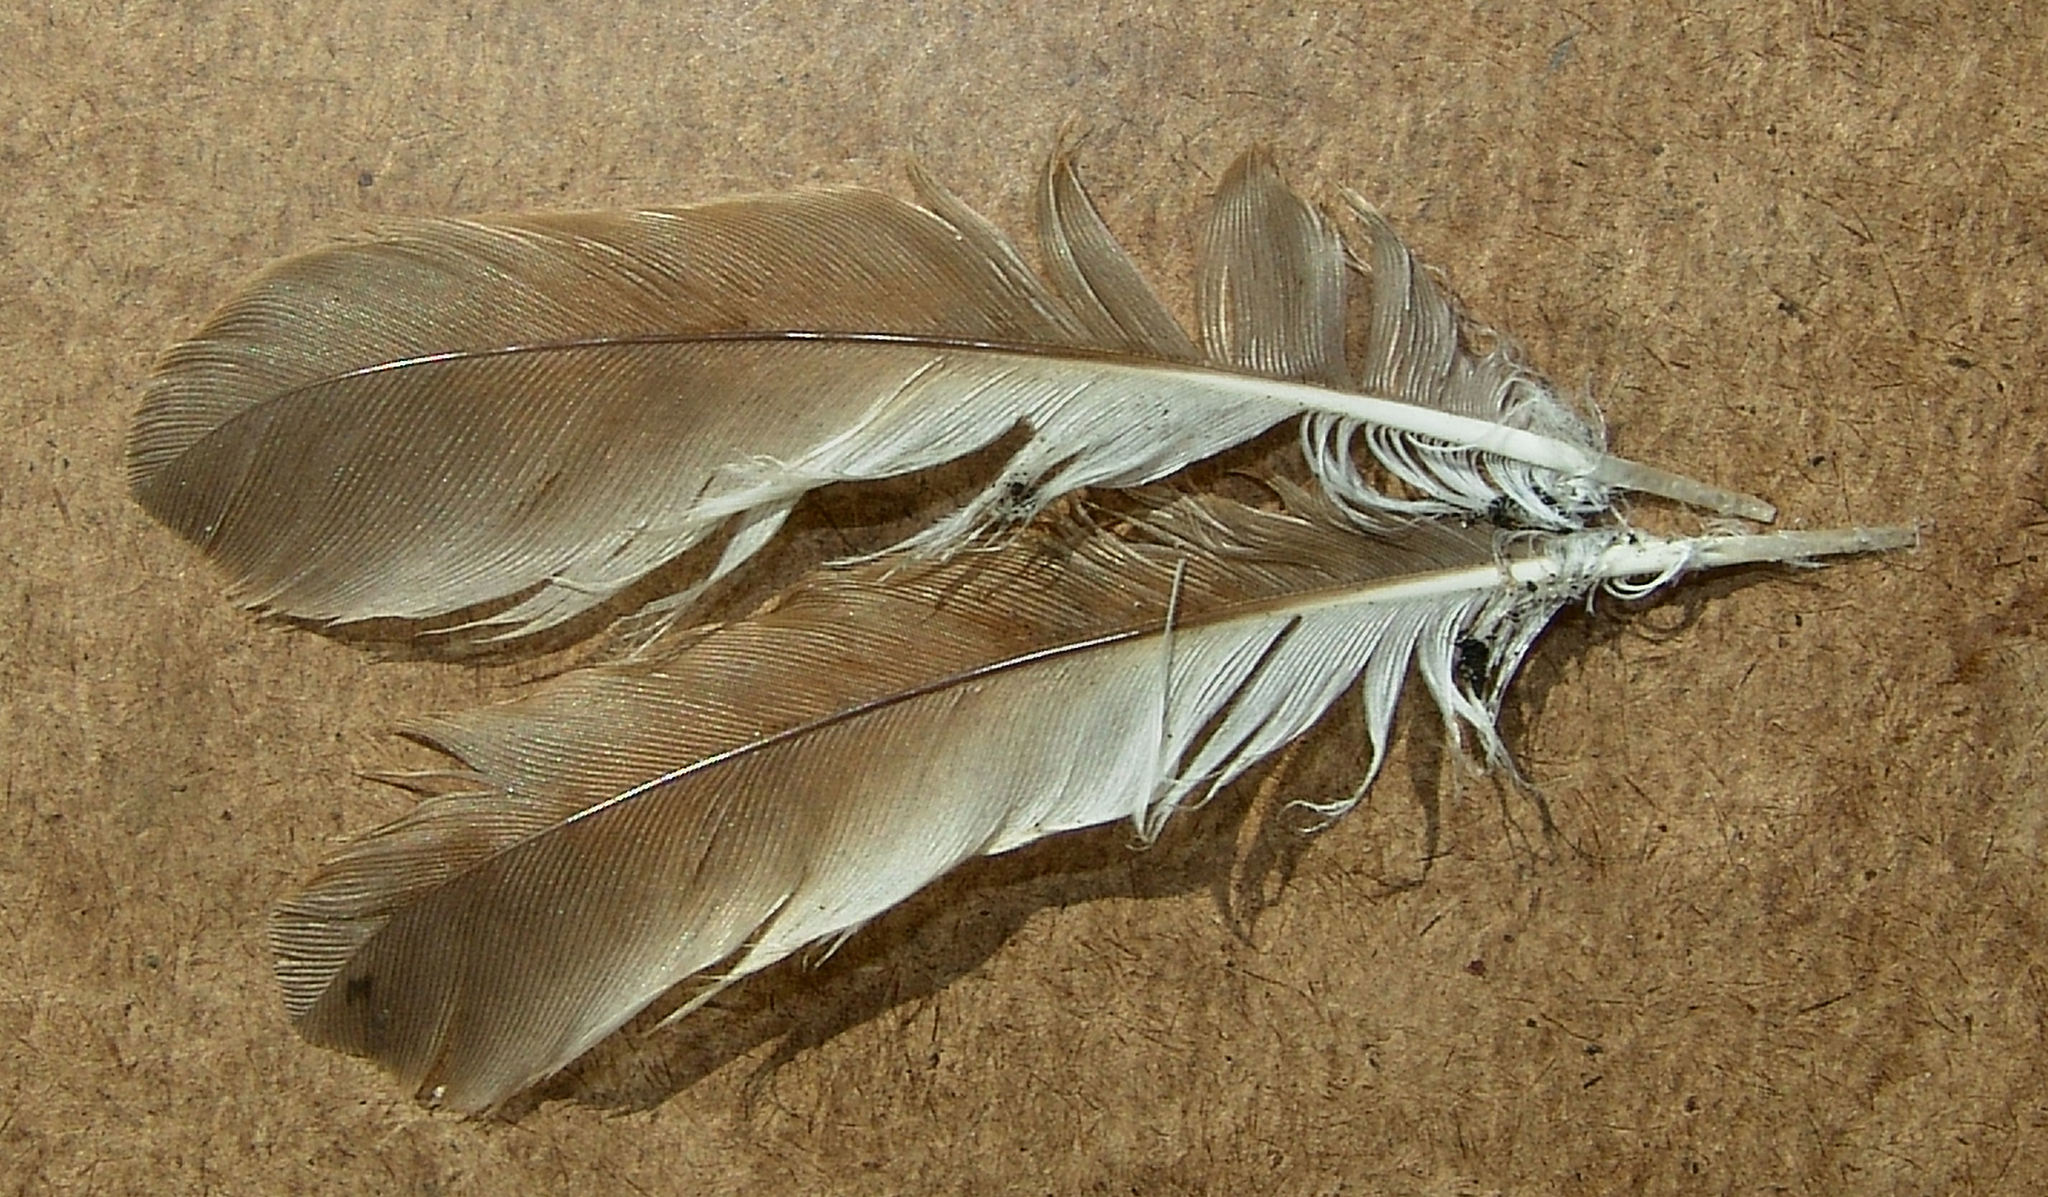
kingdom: Animalia
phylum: Chordata
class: Aves
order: Cuculiformes
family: Cuculidae
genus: Coccyzus
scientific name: Coccyzus americanus
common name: Yellow-billed cuckoo
